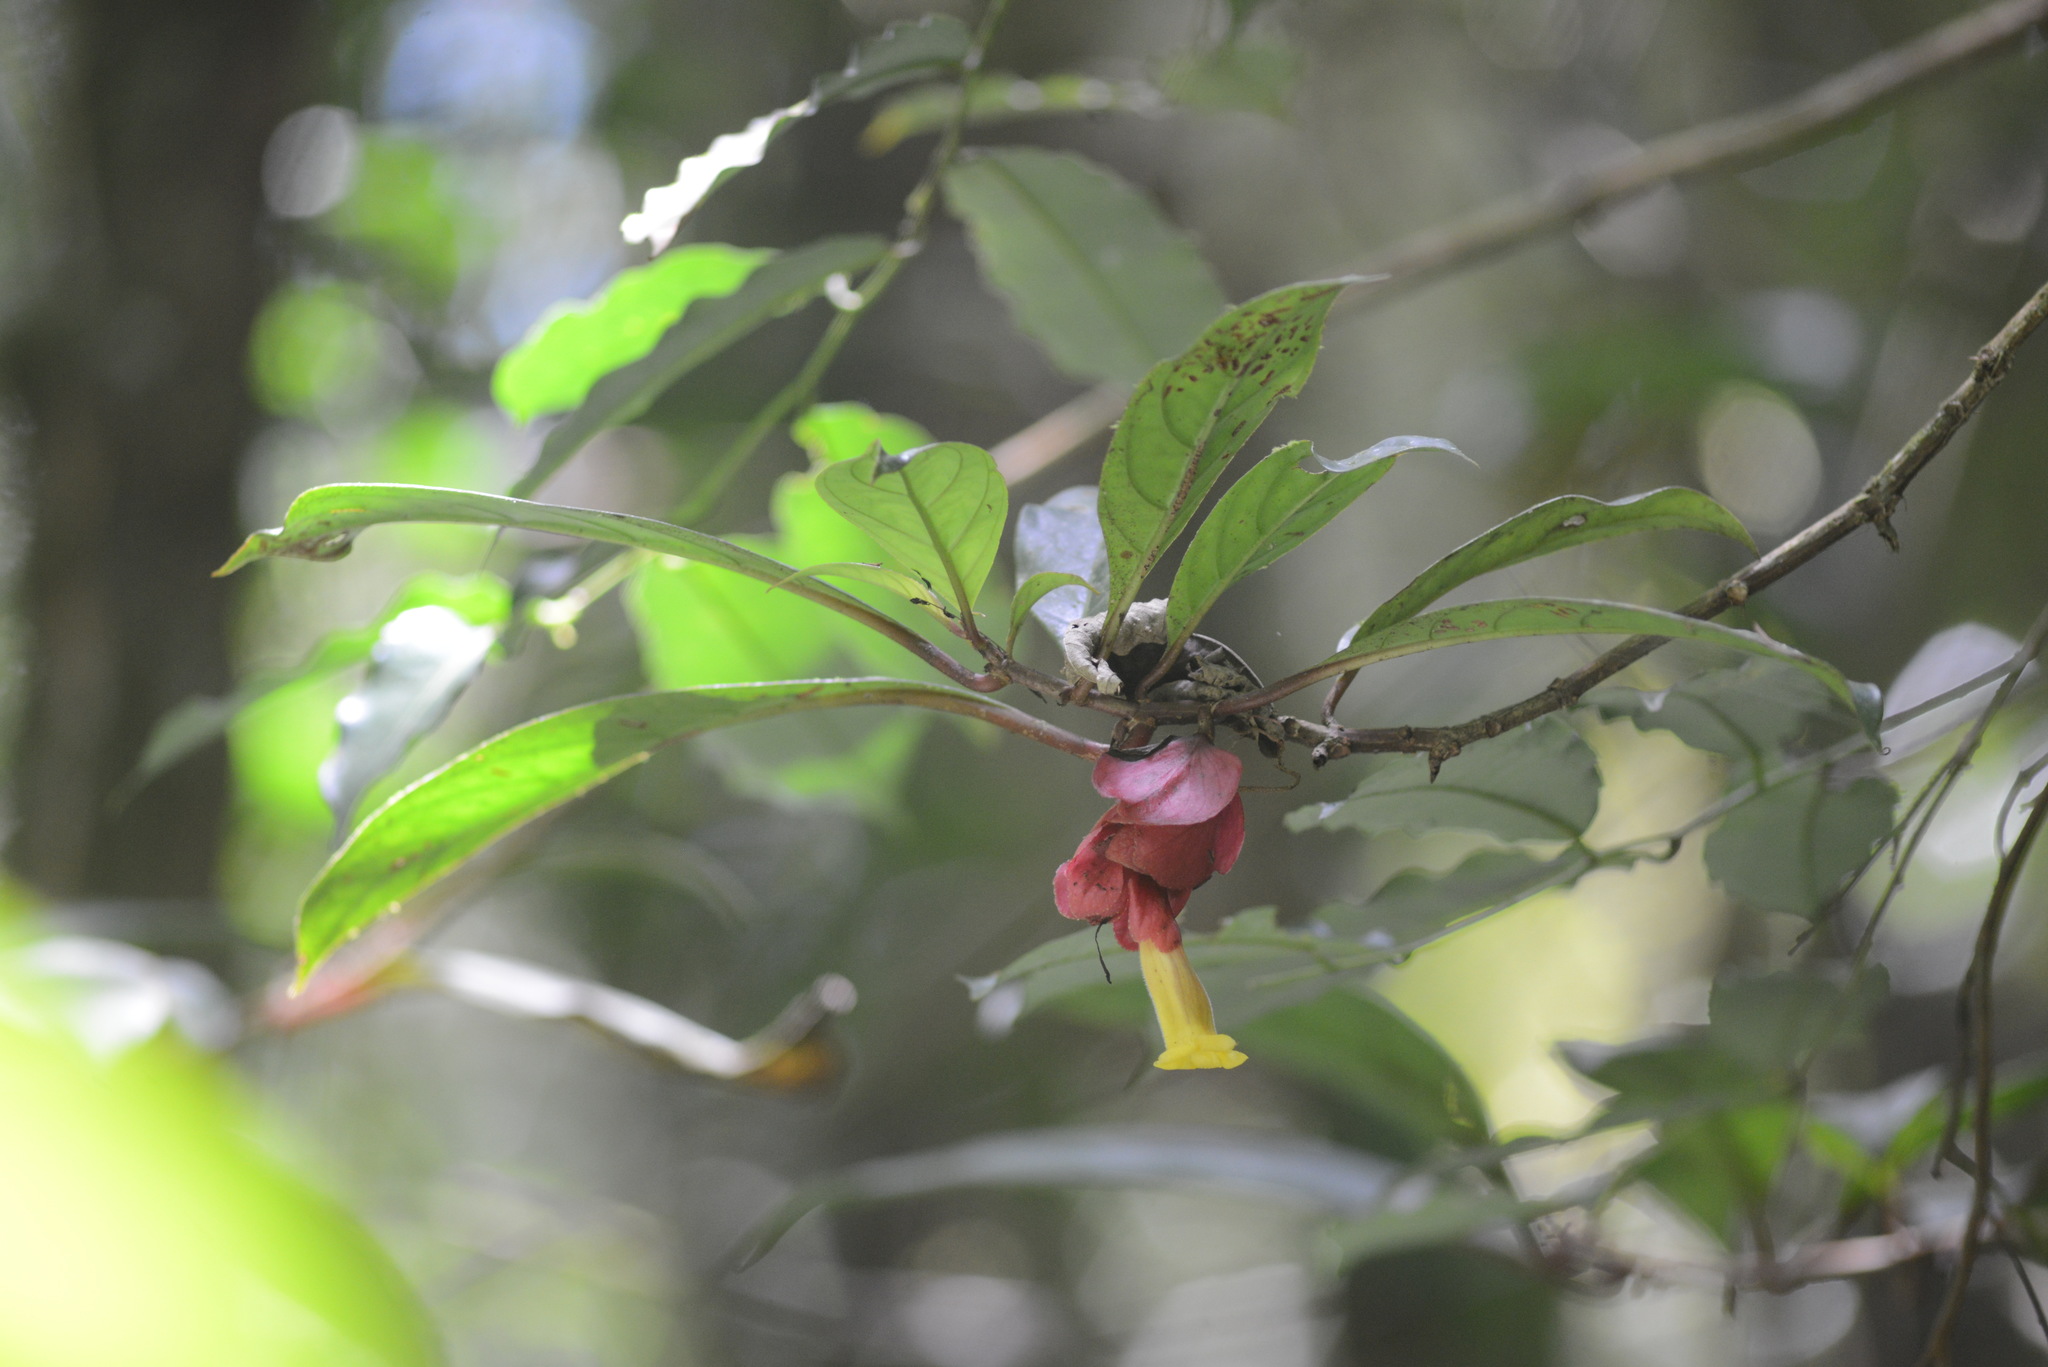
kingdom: Plantae
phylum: Tracheophyta
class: Magnoliopsida
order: Lamiales
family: Gesneriaceae
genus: Drymonia
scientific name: Drymonia coccinea
